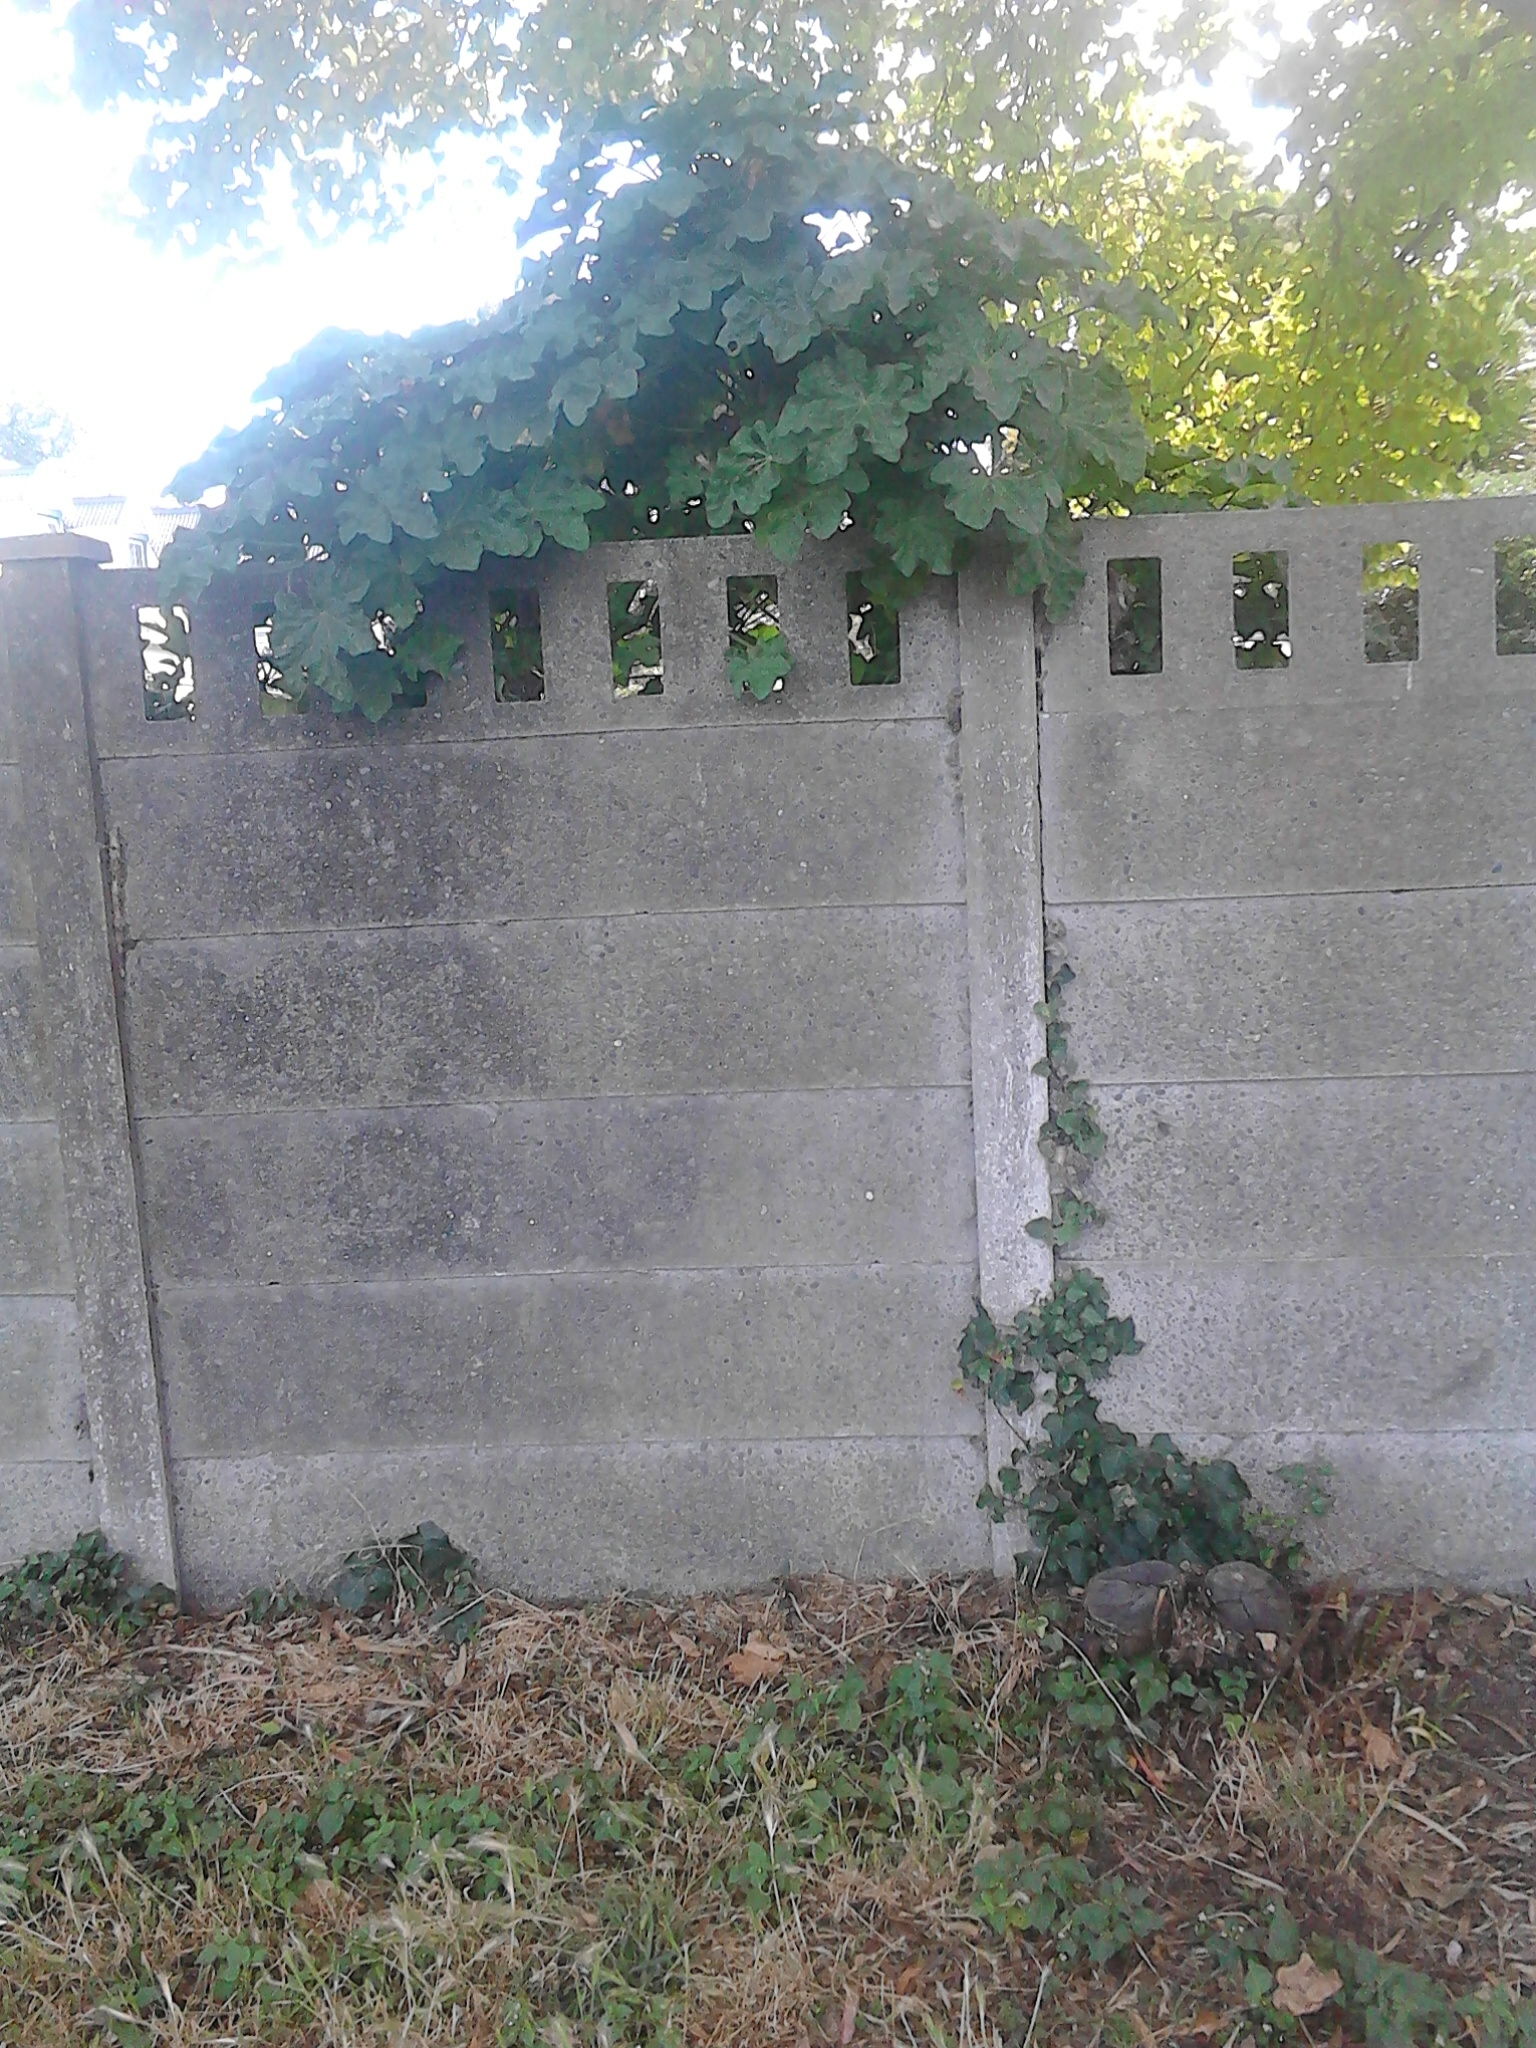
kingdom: Plantae
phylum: Tracheophyta
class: Magnoliopsida
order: Malvales
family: Malvaceae
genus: Malva
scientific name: Malva arborea
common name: Tree mallow
